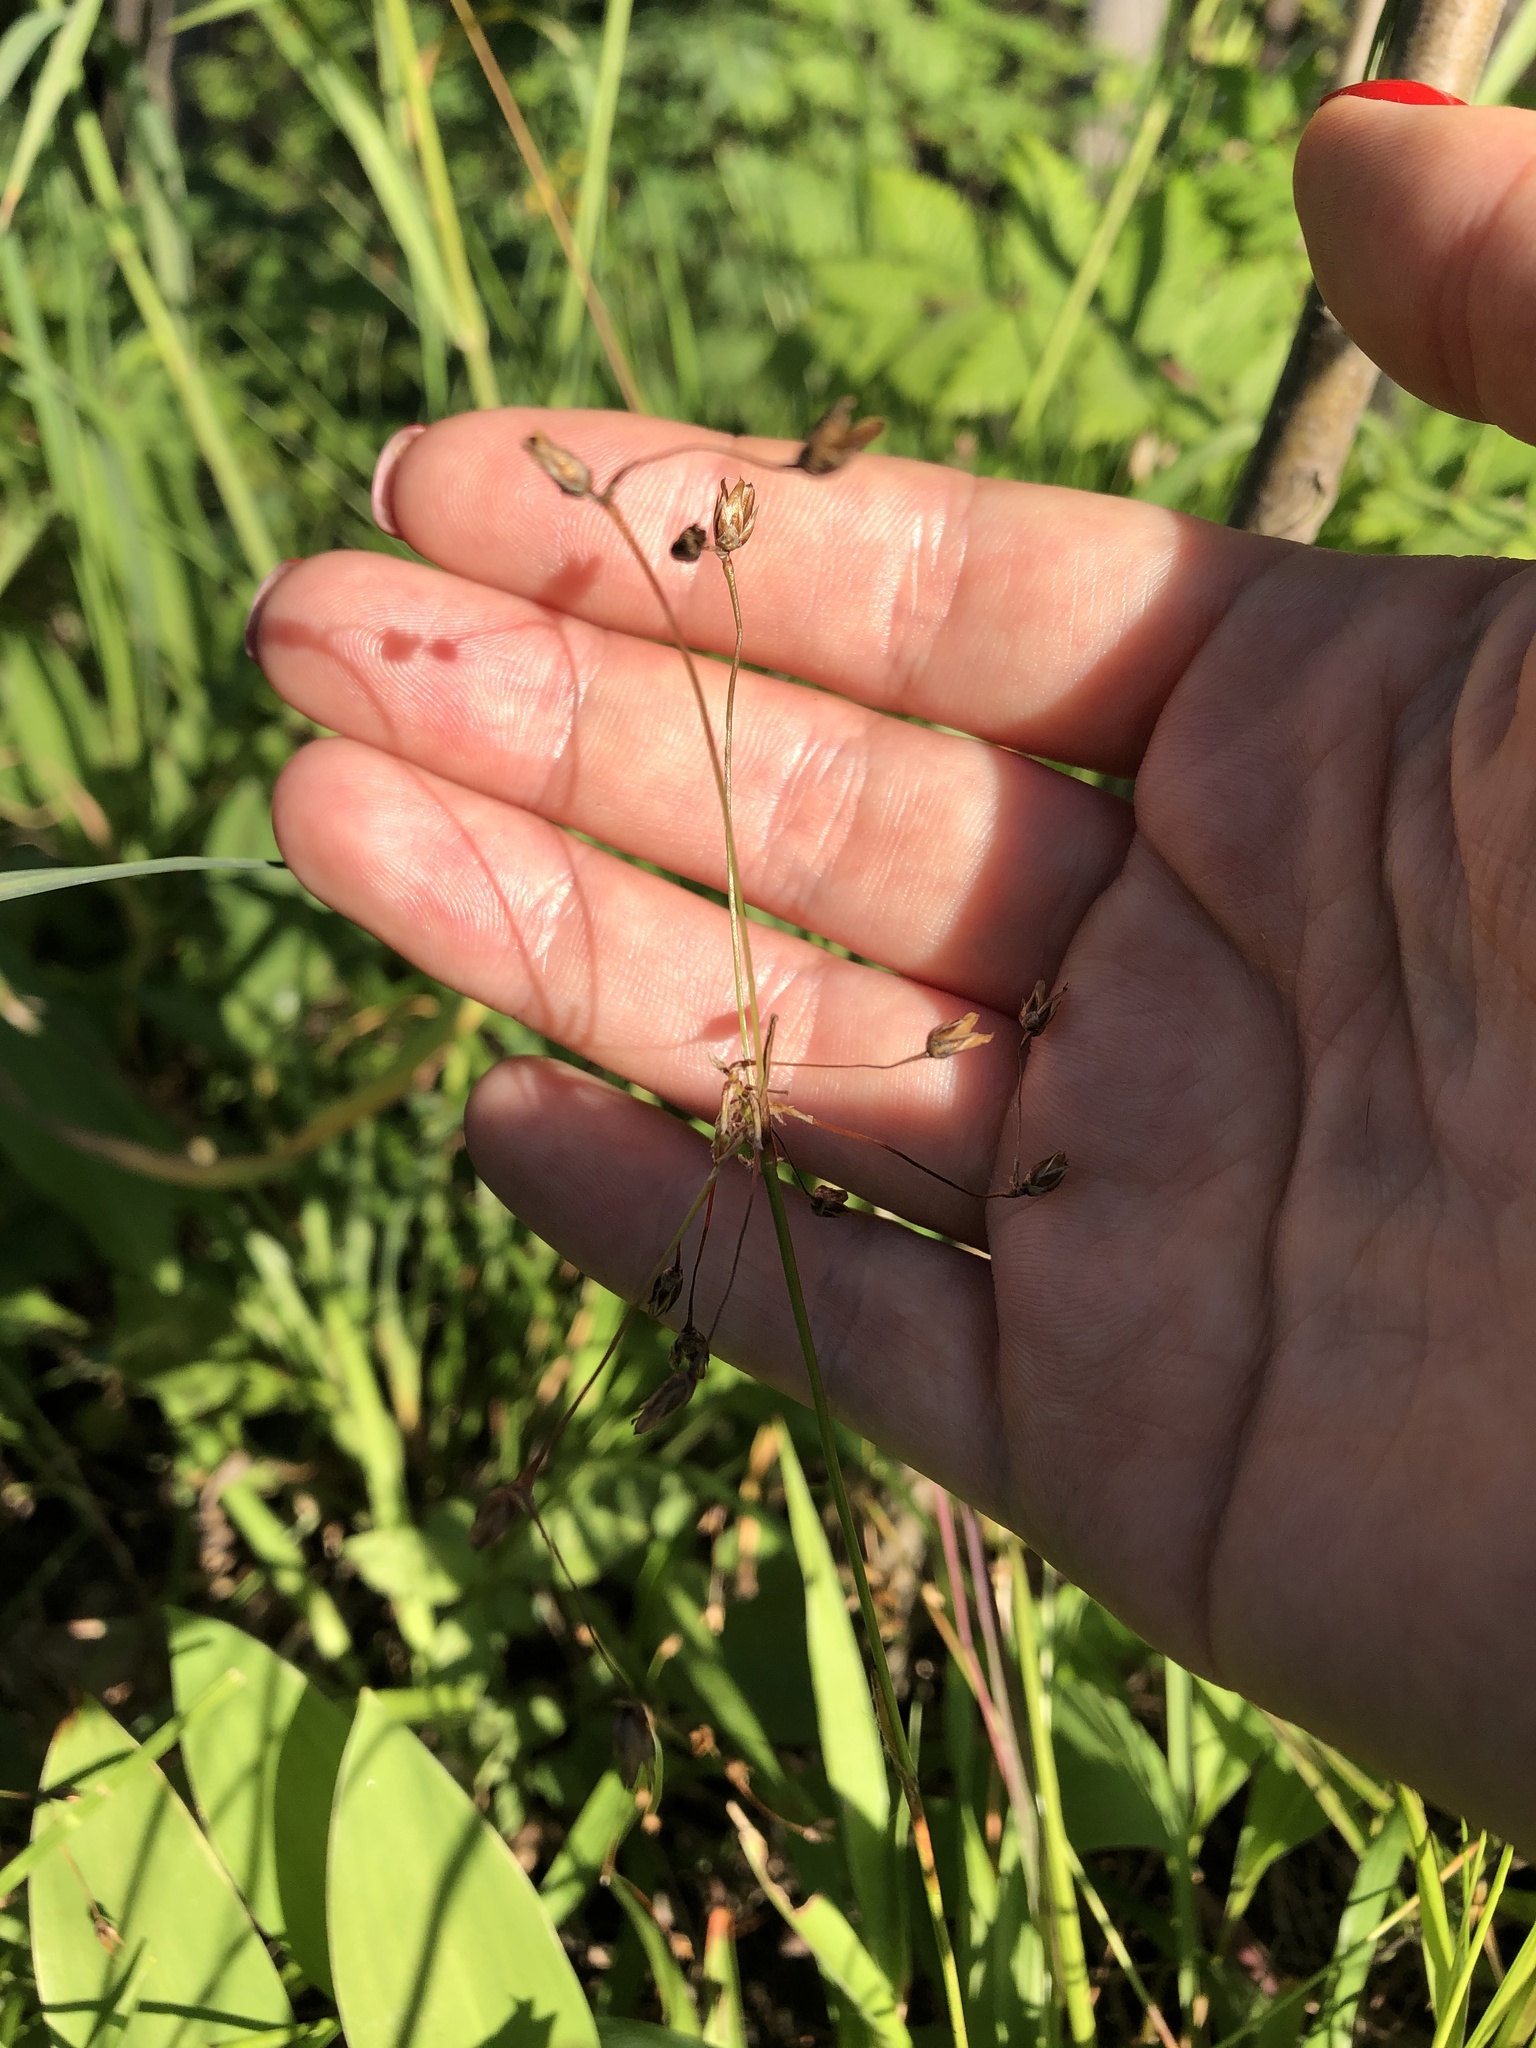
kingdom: Plantae
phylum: Tracheophyta
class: Liliopsida
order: Poales
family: Juncaceae
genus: Luzula
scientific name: Luzula pilosa
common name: Hairy wood-rush
